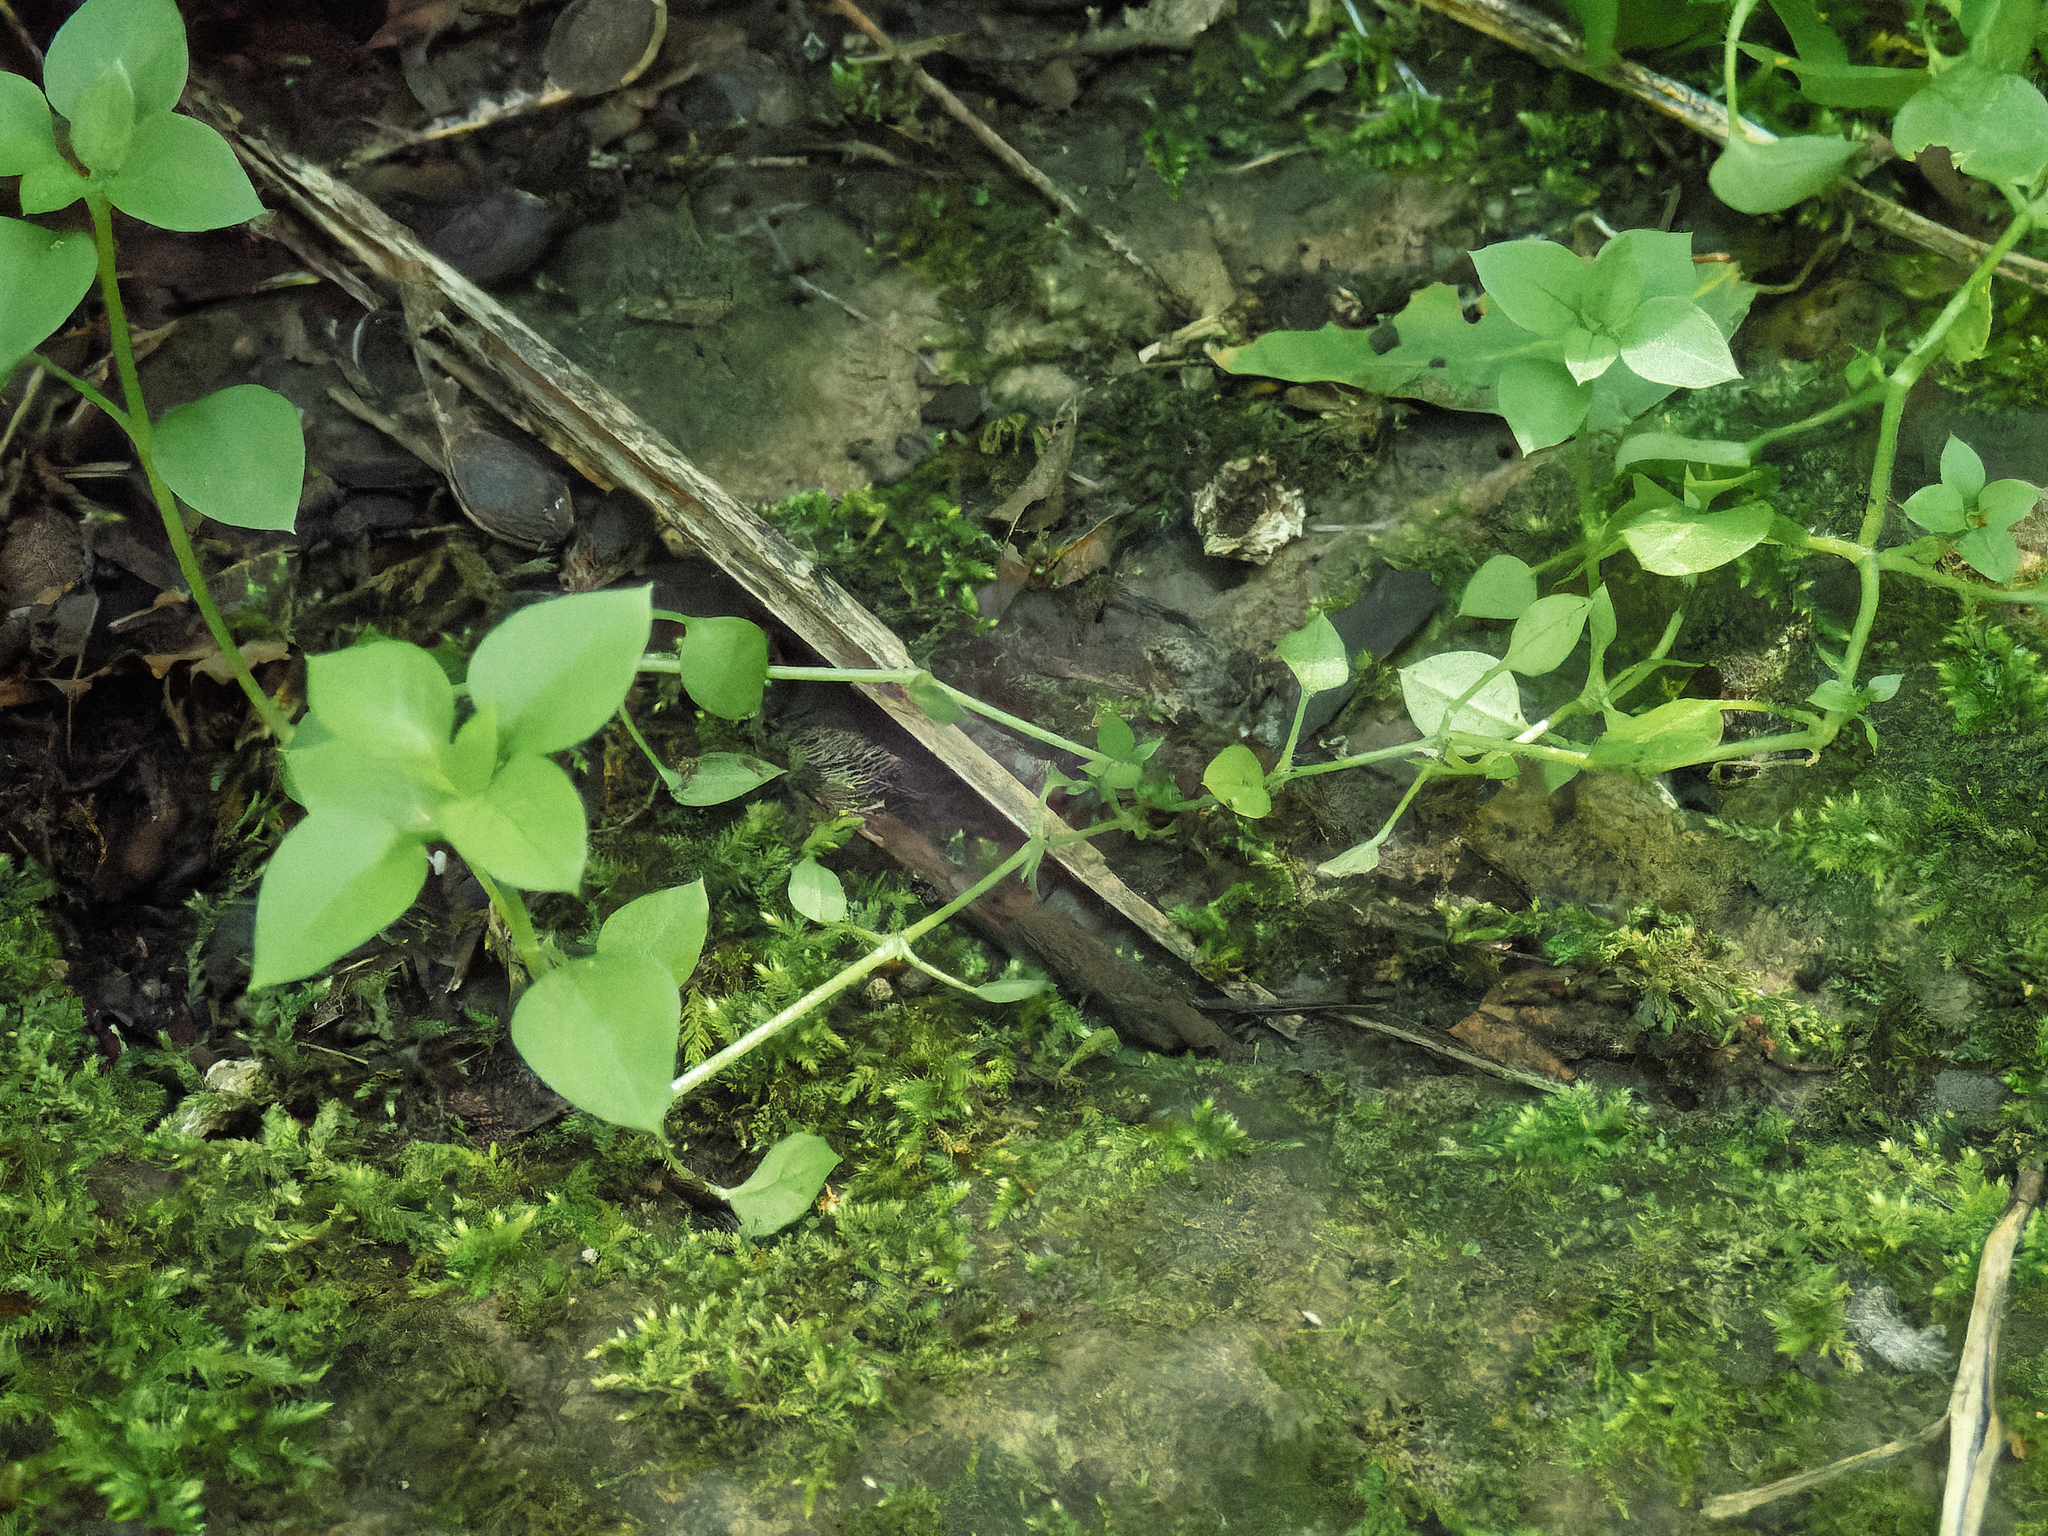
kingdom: Plantae
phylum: Tracheophyta
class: Magnoliopsida
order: Caryophyllales
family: Caryophyllaceae
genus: Stellaria
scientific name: Stellaria media
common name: Common chickweed
